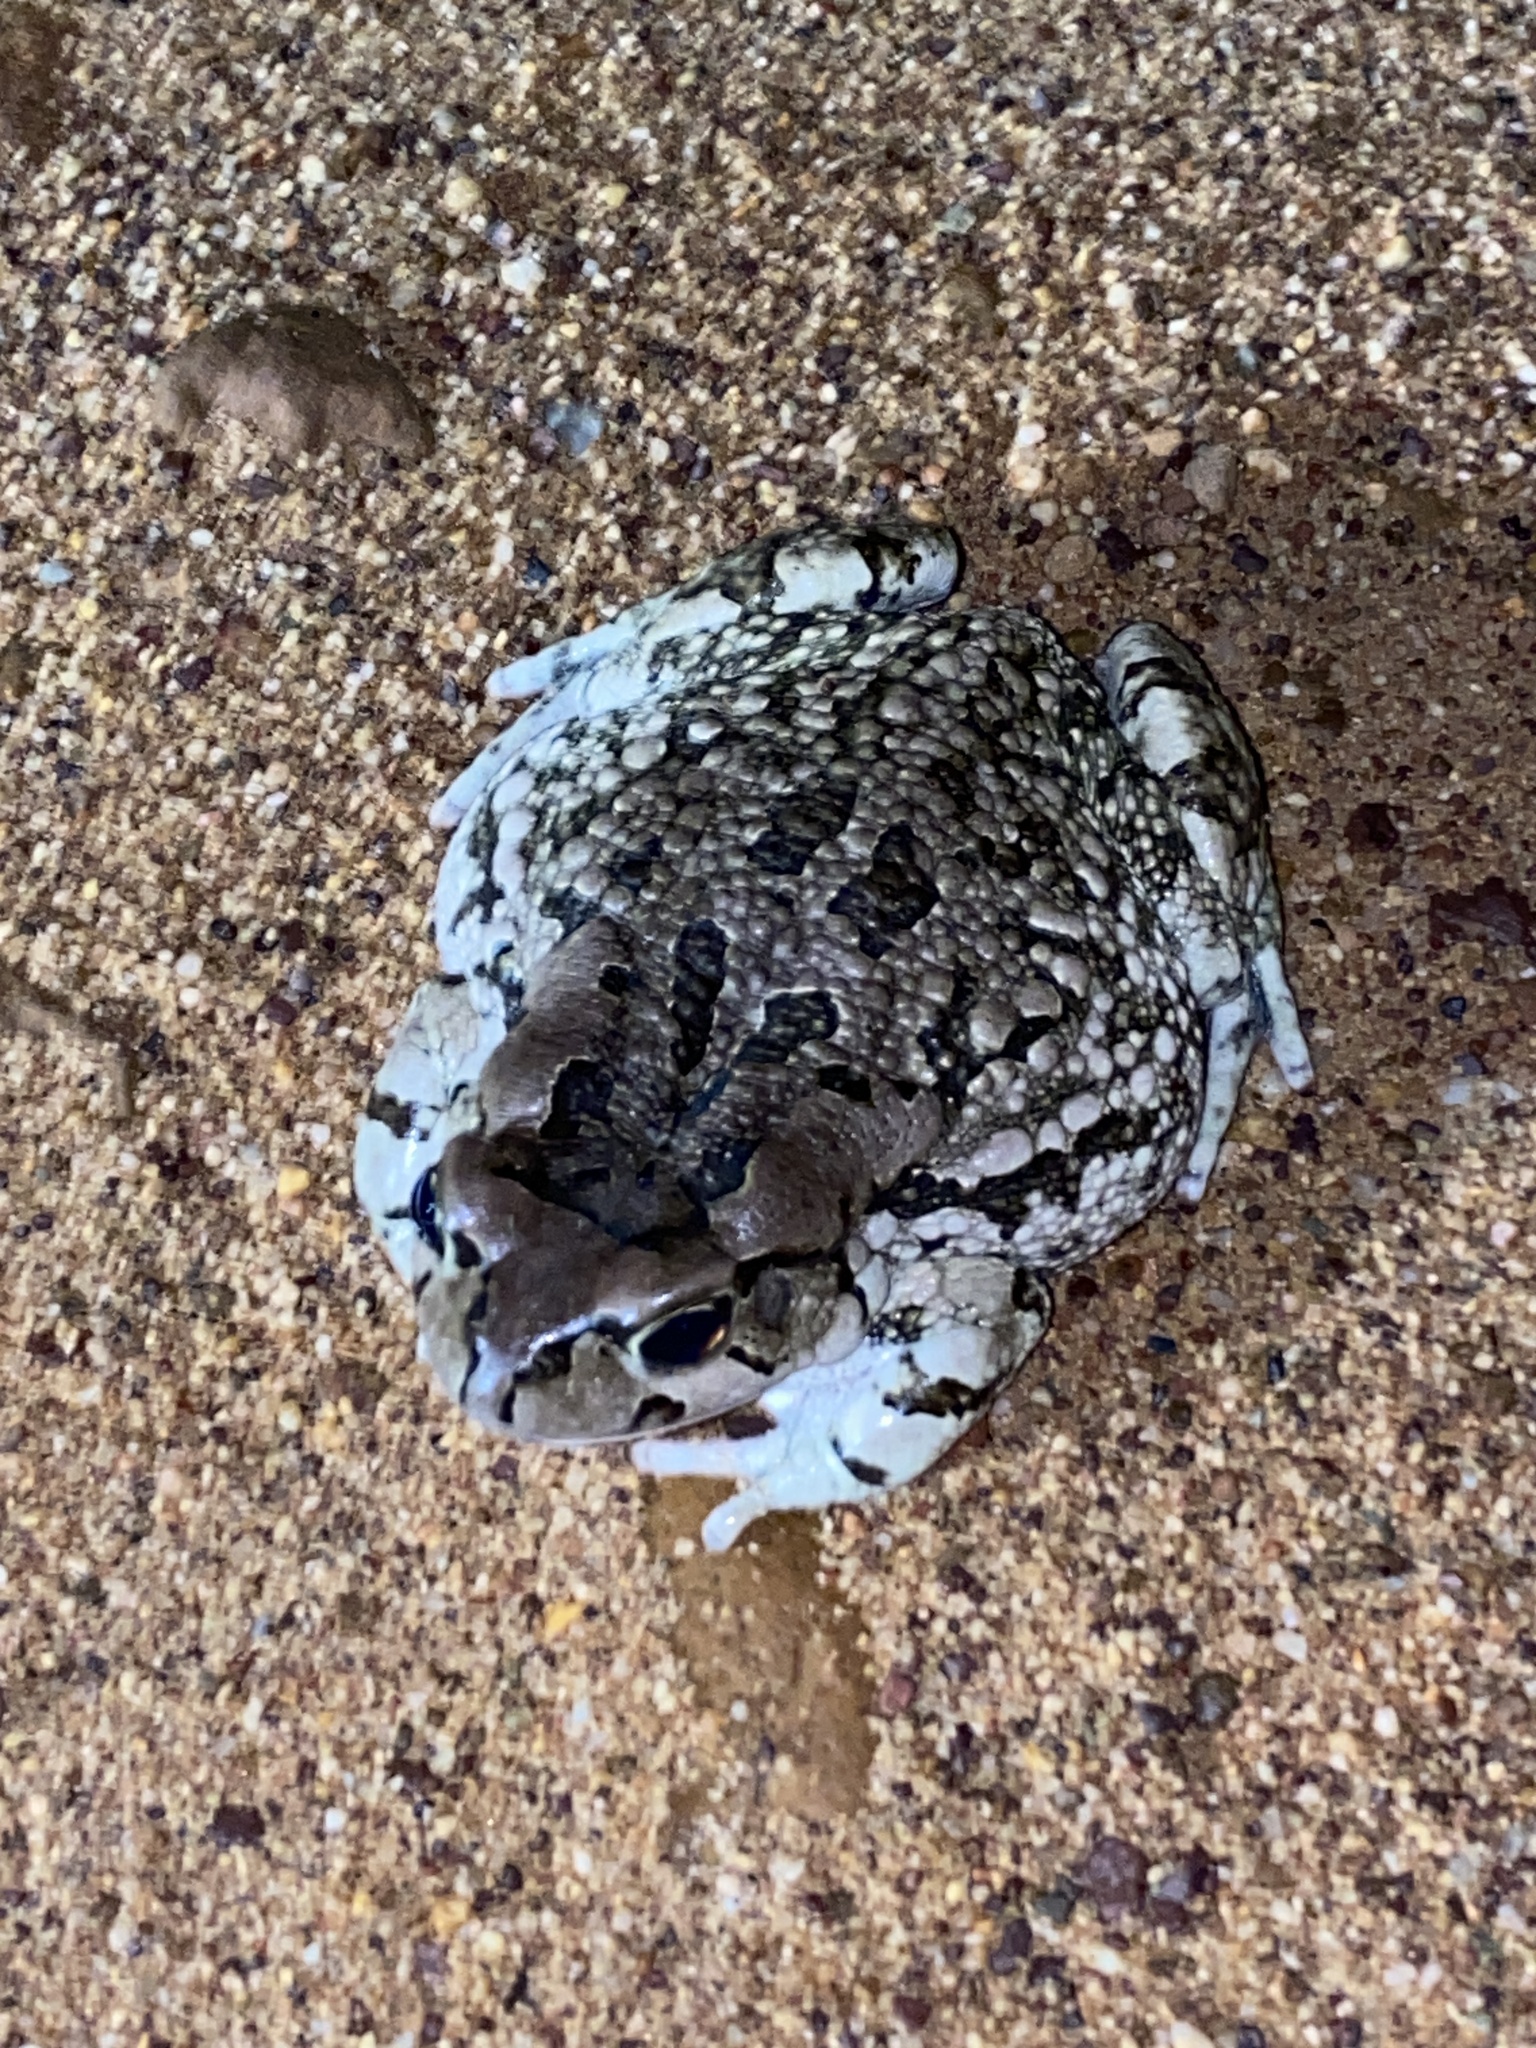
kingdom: Animalia
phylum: Chordata
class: Amphibia
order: Anura
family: Bufonidae
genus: Sclerophrys
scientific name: Sclerophrys capensis
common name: Ranger’s toad
